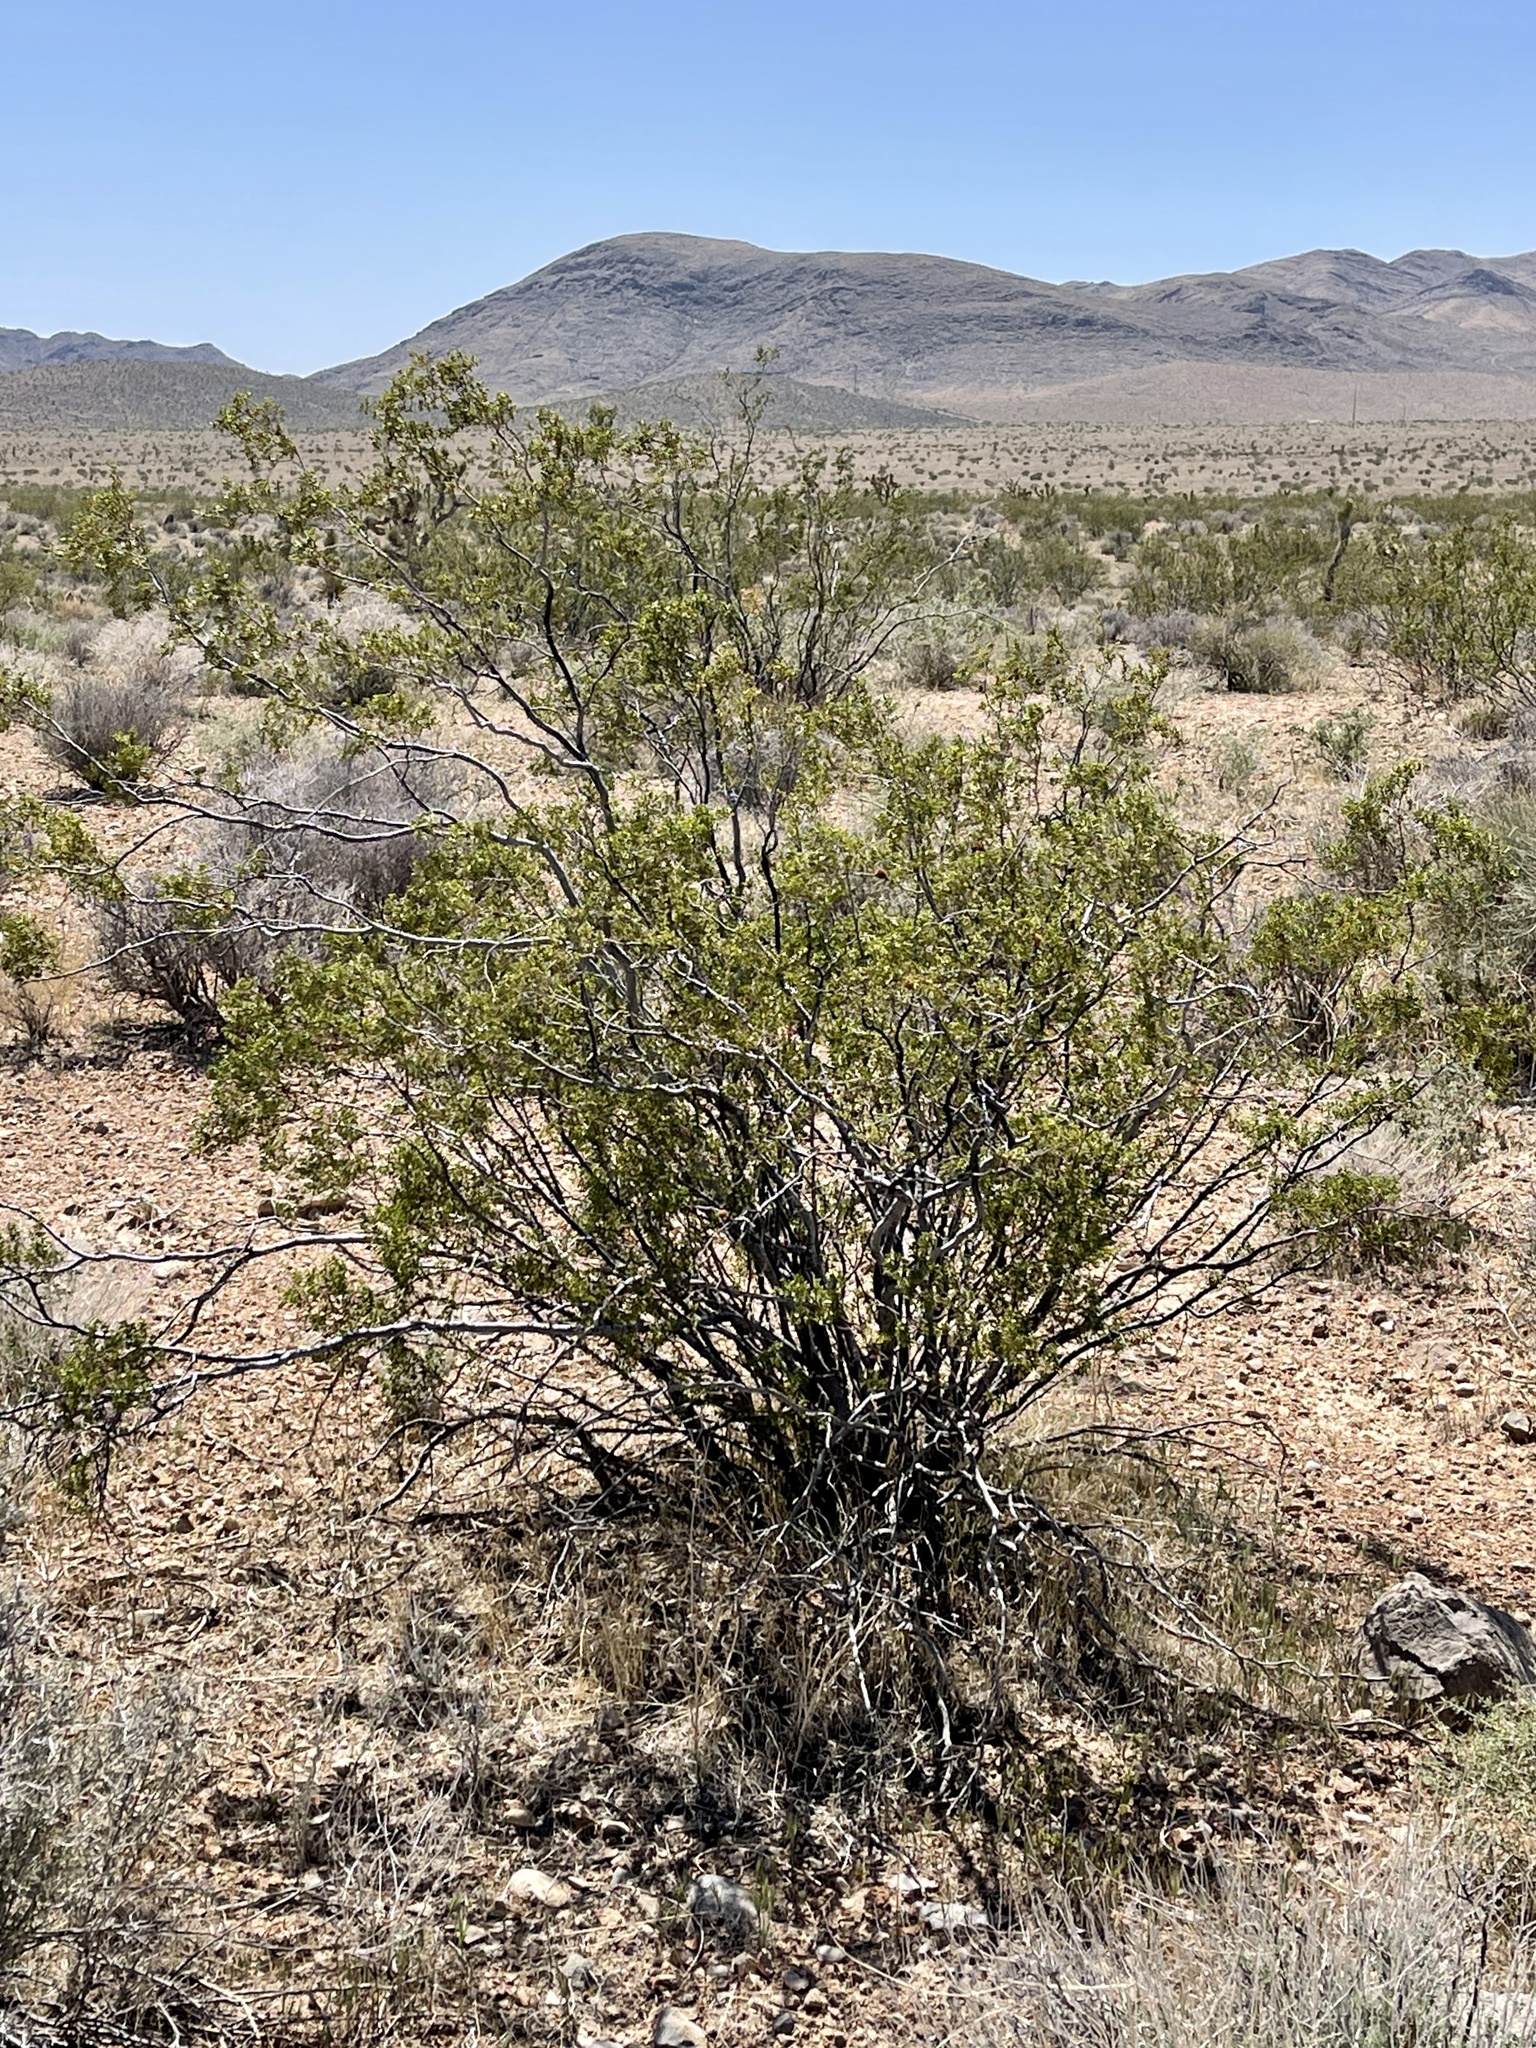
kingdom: Plantae
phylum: Tracheophyta
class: Magnoliopsida
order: Zygophyllales
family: Zygophyllaceae
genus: Larrea
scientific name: Larrea tridentata
